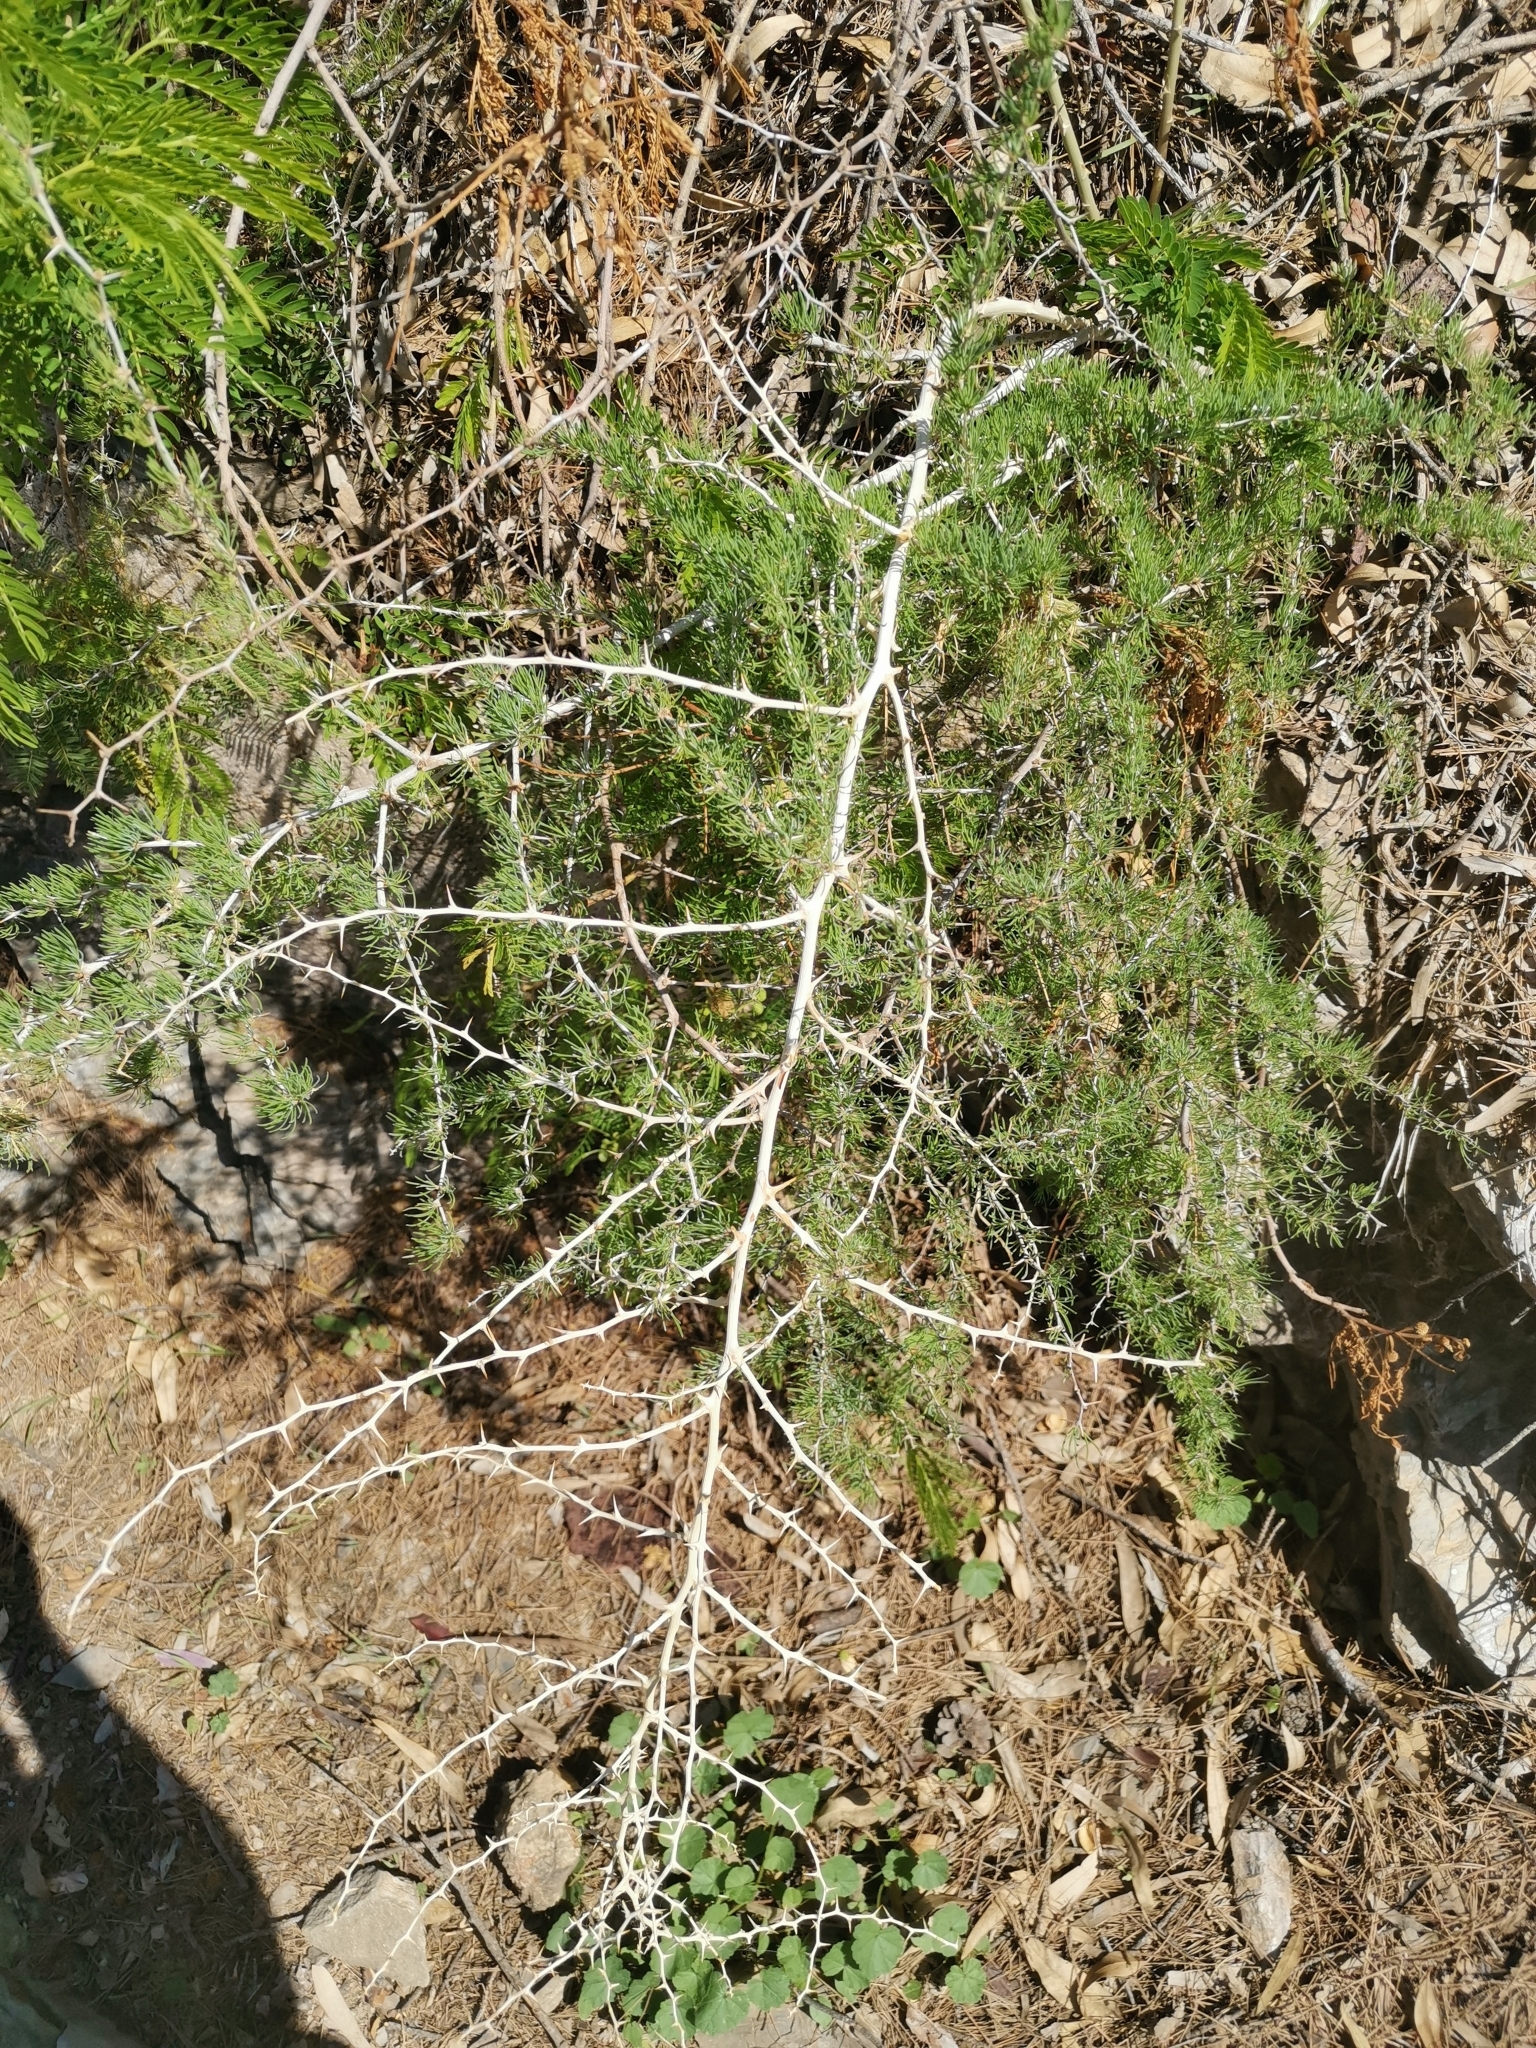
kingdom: Plantae
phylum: Tracheophyta
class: Liliopsida
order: Asparagales
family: Asparagaceae
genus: Asparagus
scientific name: Asparagus albus
